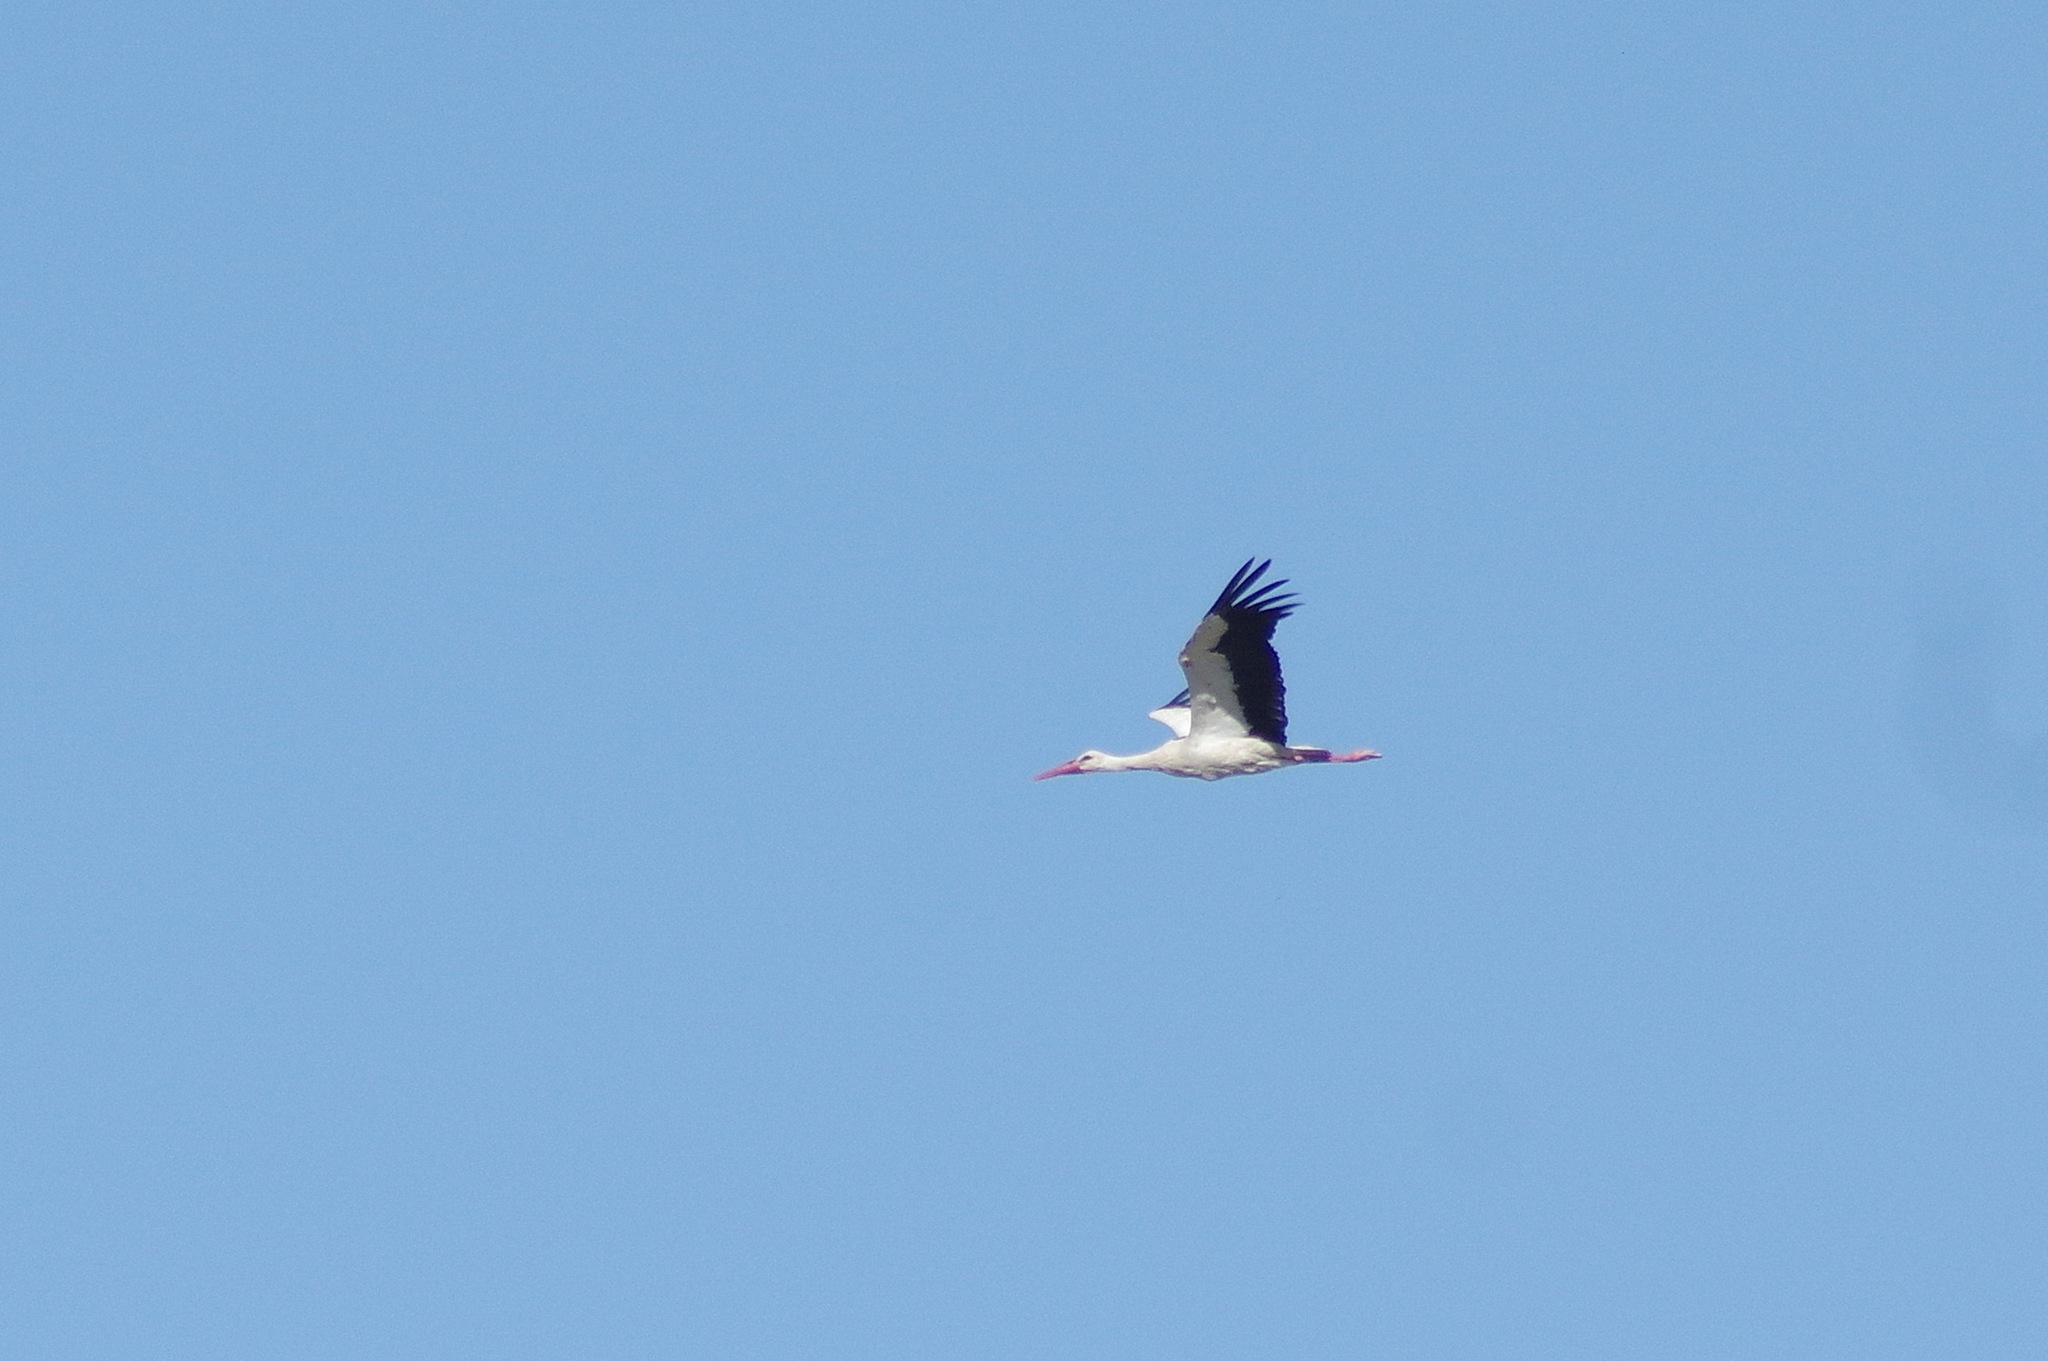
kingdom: Animalia
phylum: Chordata
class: Aves
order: Ciconiiformes
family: Ciconiidae
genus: Ciconia
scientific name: Ciconia ciconia
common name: White stork
